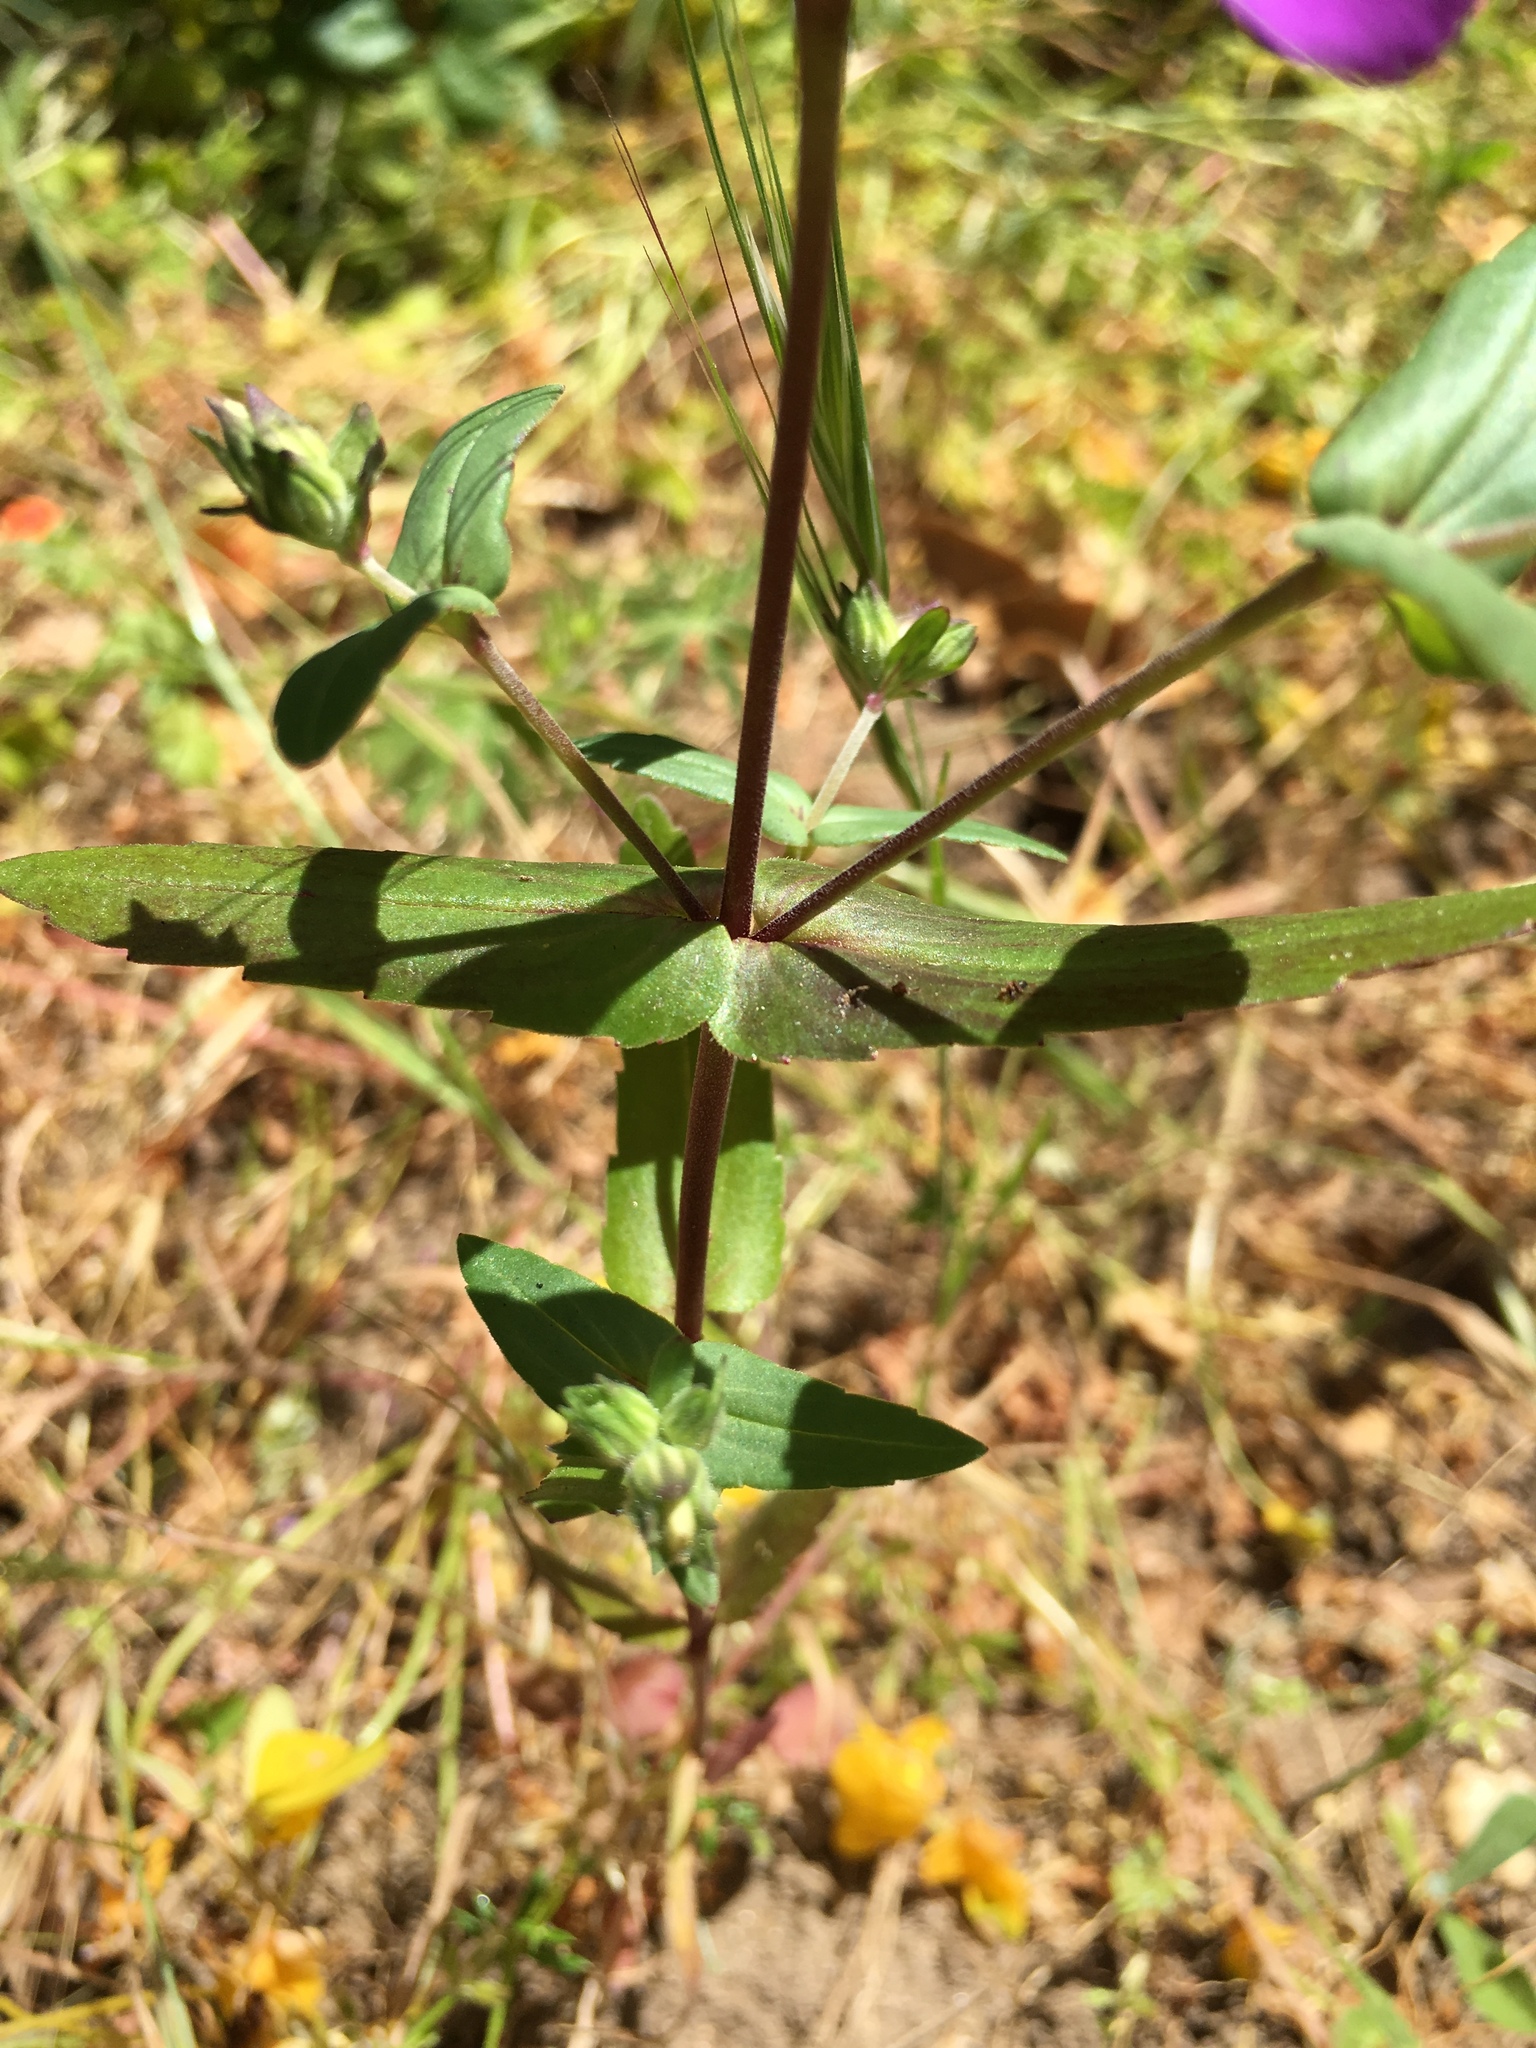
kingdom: Plantae
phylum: Tracheophyta
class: Magnoliopsida
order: Lamiales
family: Plantaginaceae
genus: Collinsia
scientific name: Collinsia heterophylla
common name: Chinese-houses
